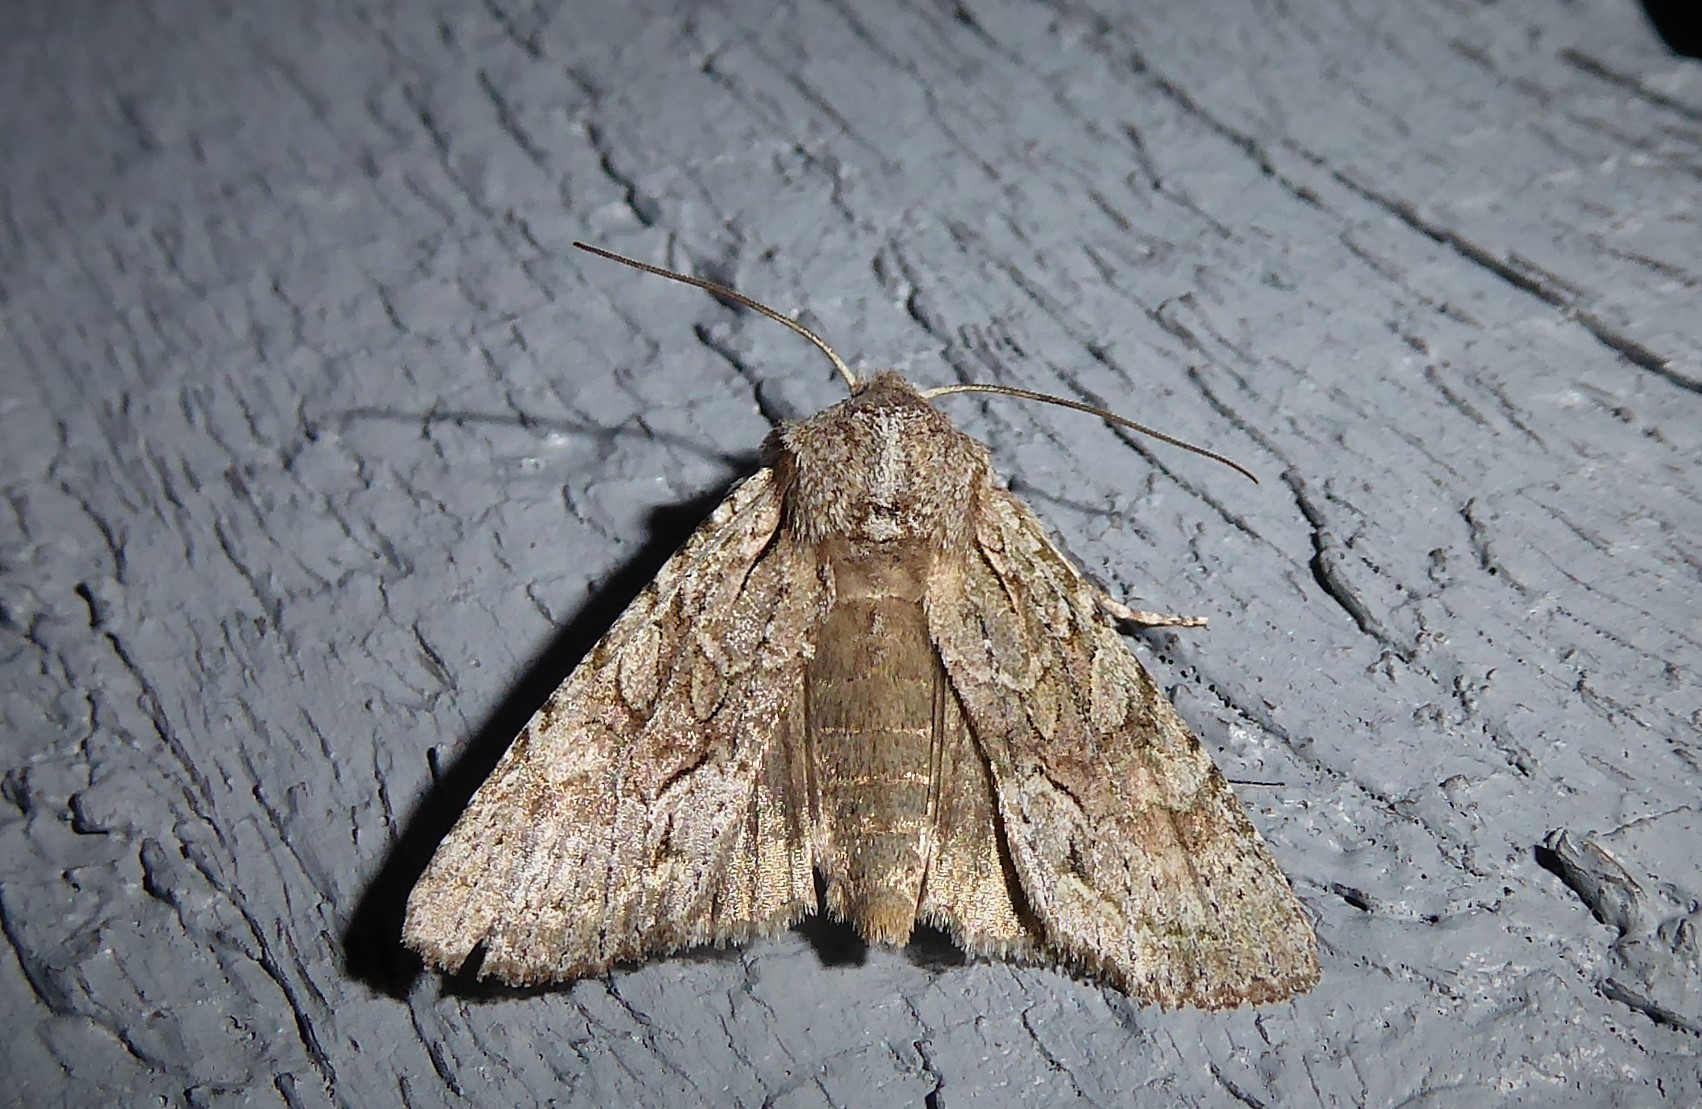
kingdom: Animalia
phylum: Arthropoda
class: Insecta
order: Lepidoptera
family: Noctuidae
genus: Ichneutica
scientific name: Ichneutica
